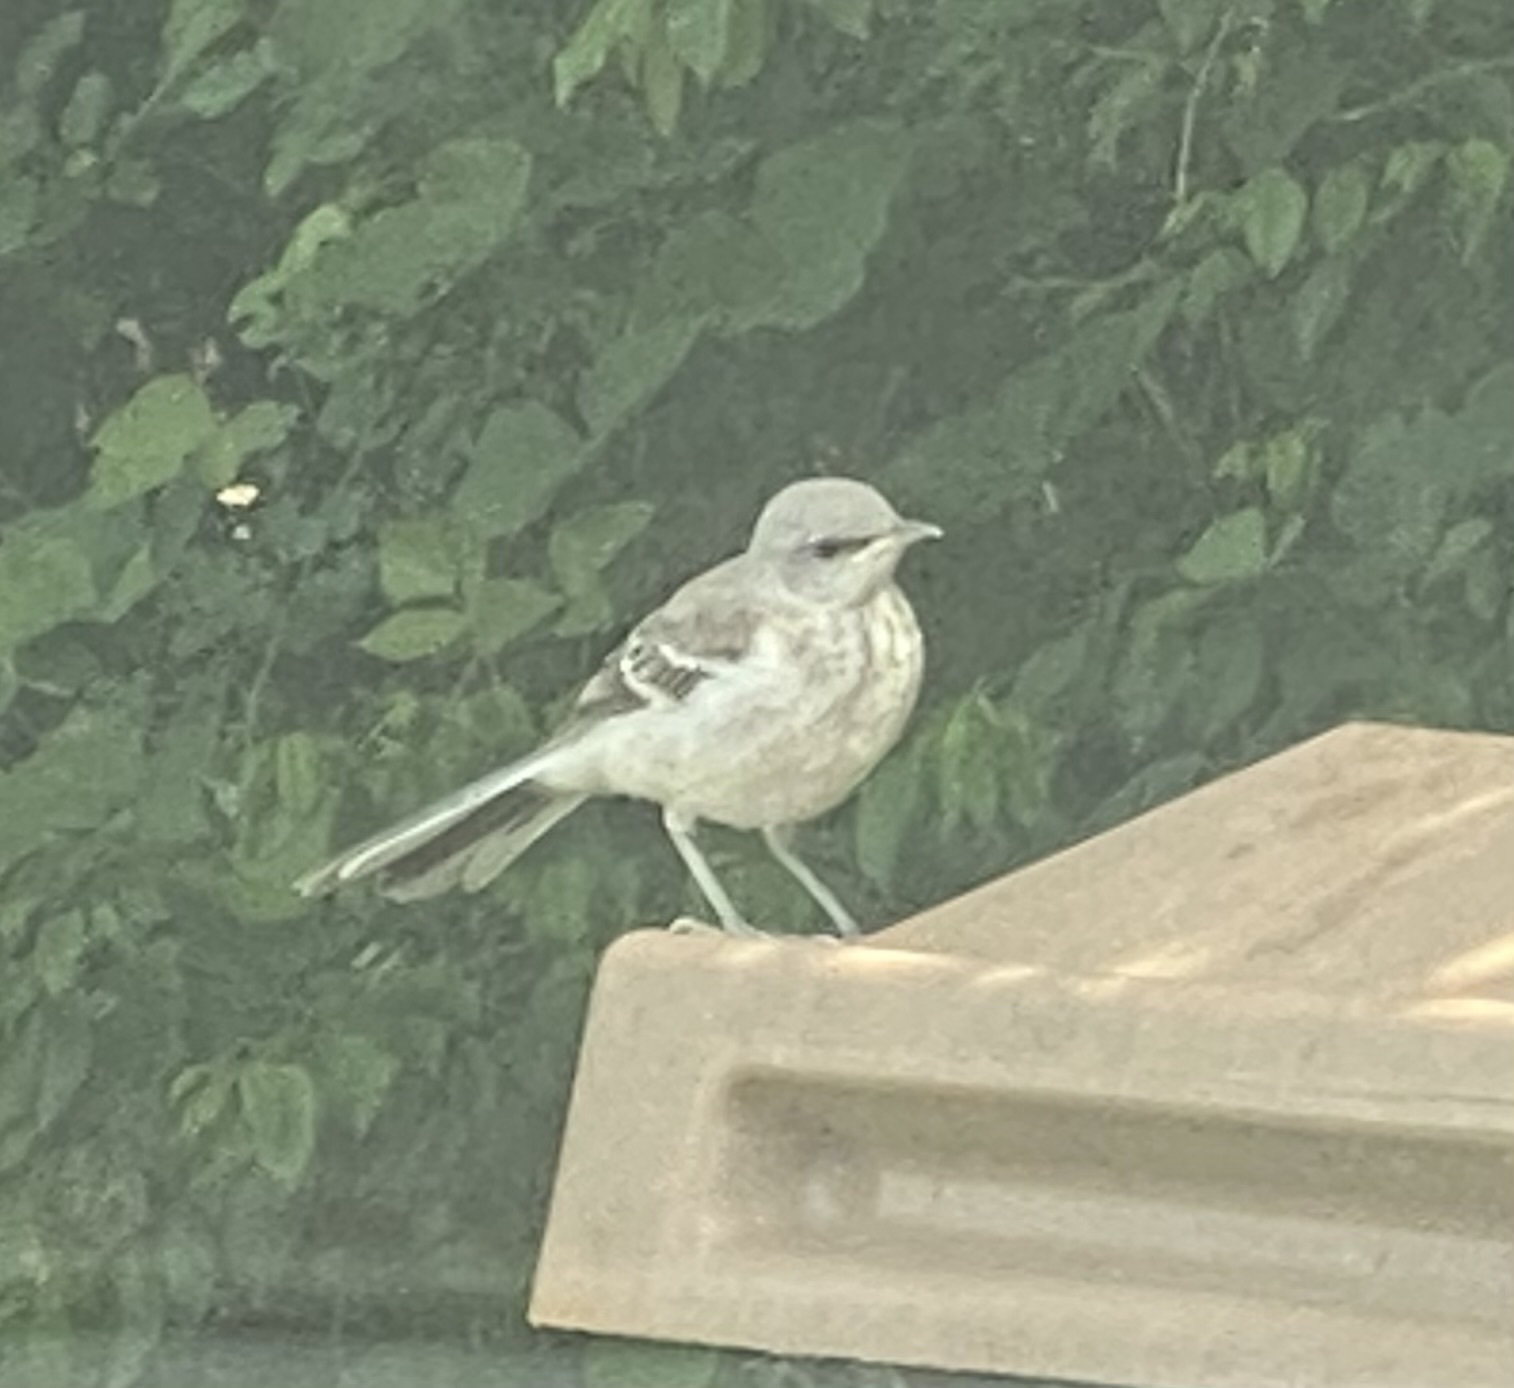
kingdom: Animalia
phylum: Chordata
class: Aves
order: Passeriformes
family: Mimidae
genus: Mimus
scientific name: Mimus polyglottos
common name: Northern mockingbird
